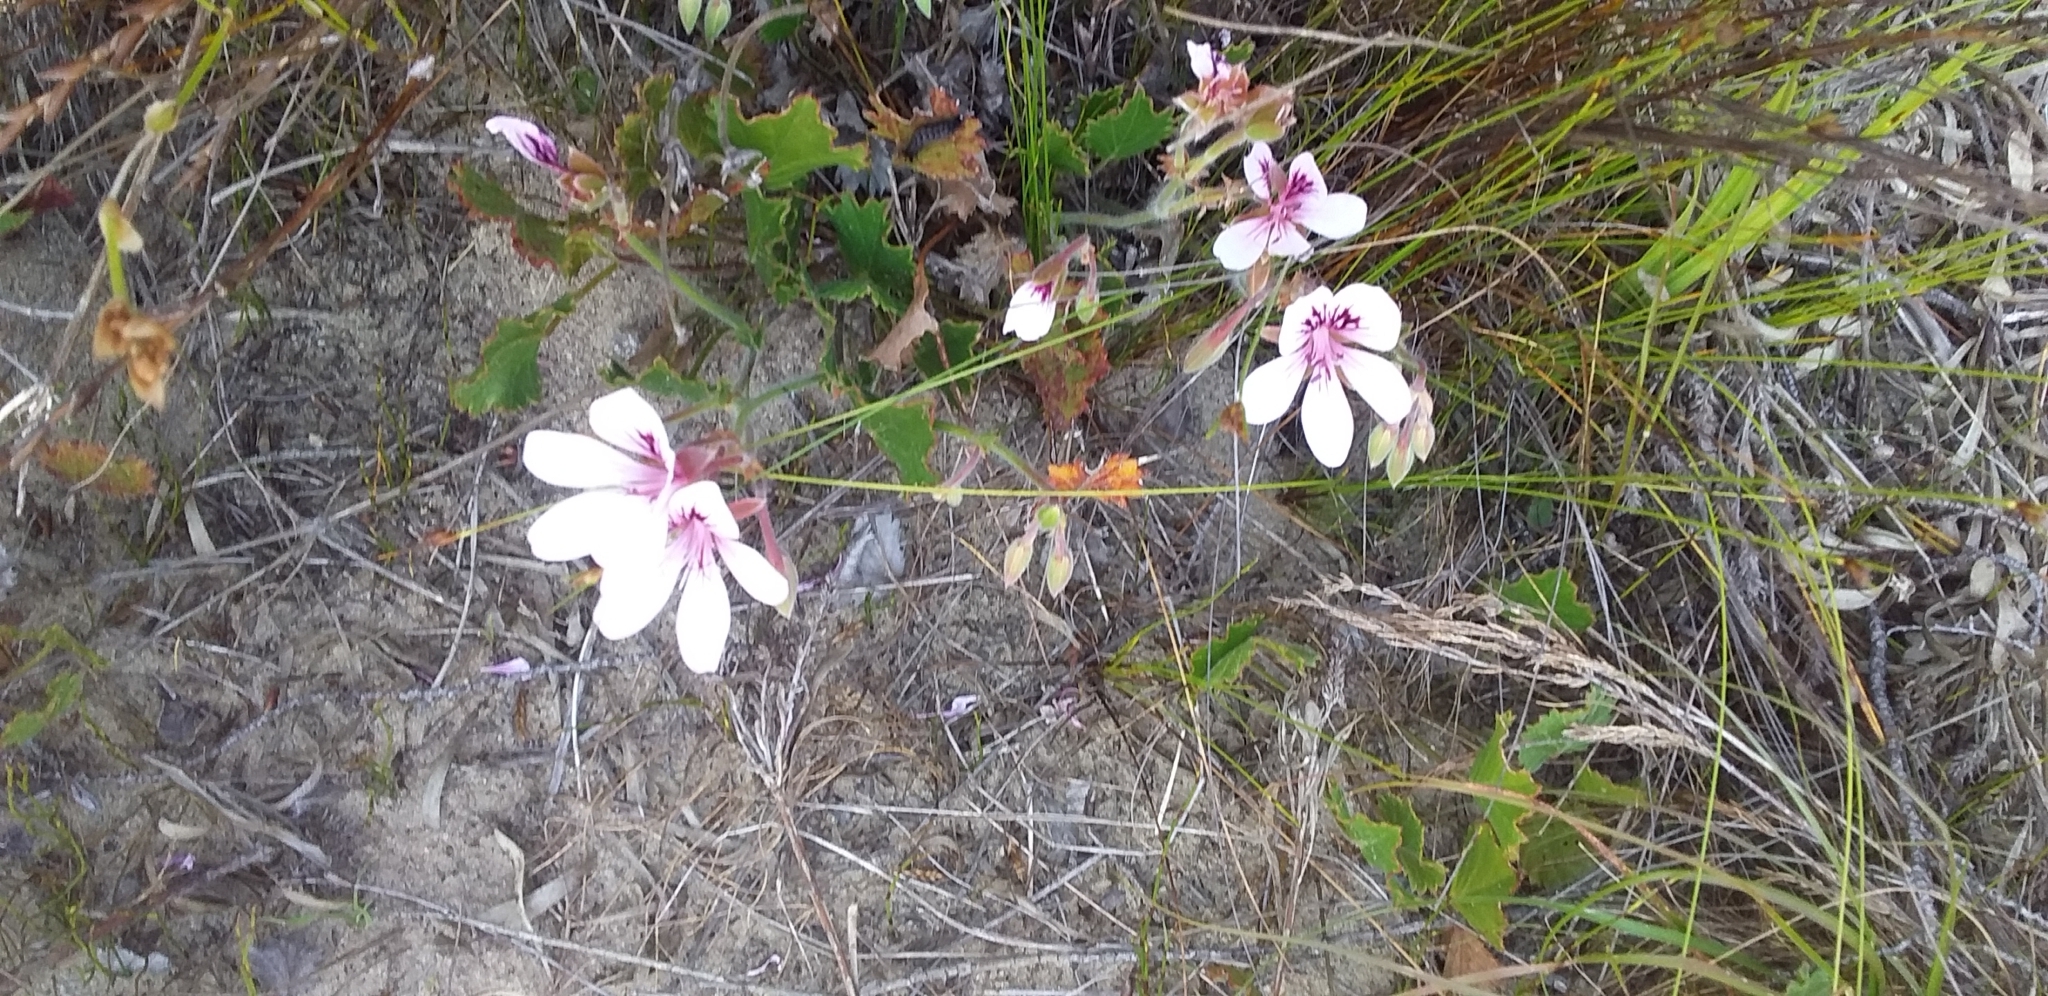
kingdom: Plantae
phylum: Tracheophyta
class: Magnoliopsida
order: Geraniales
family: Geraniaceae
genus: Pelargonium
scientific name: Pelargonium elegans
